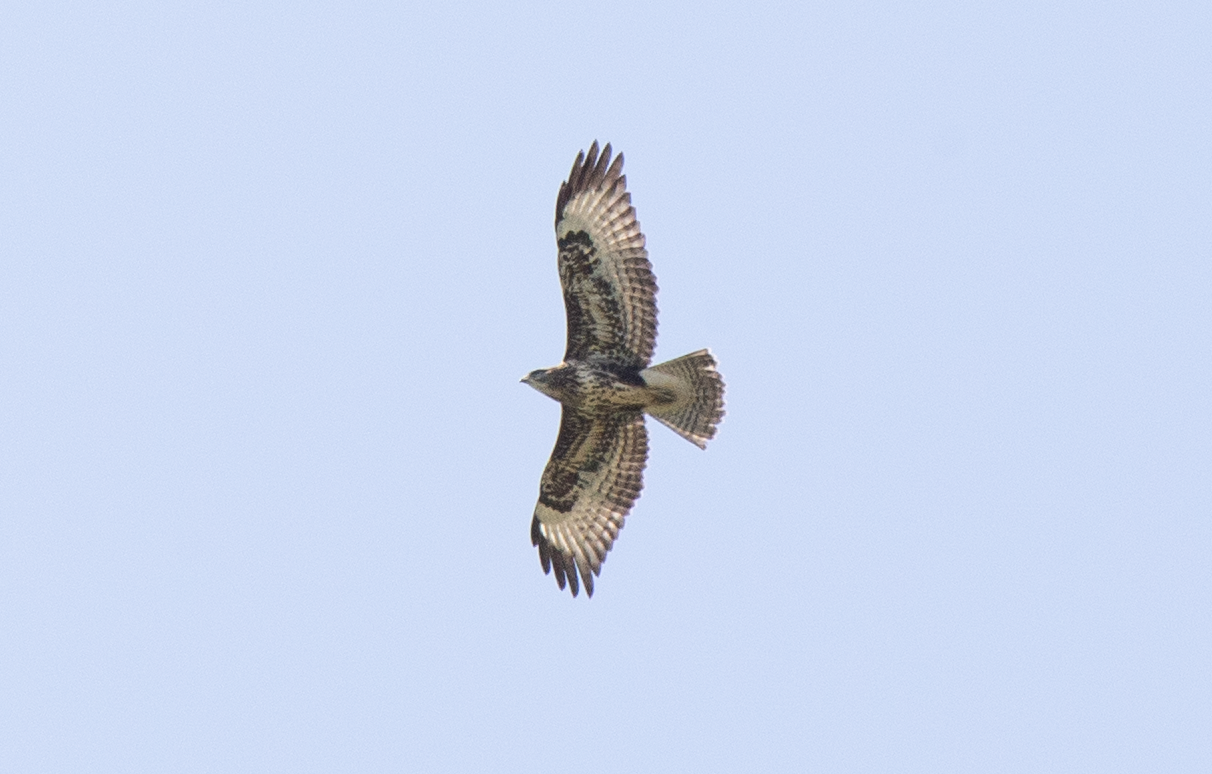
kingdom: Animalia
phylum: Chordata
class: Aves
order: Accipitriformes
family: Accipitridae
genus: Buteo
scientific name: Buteo buteo
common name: Common buzzard
